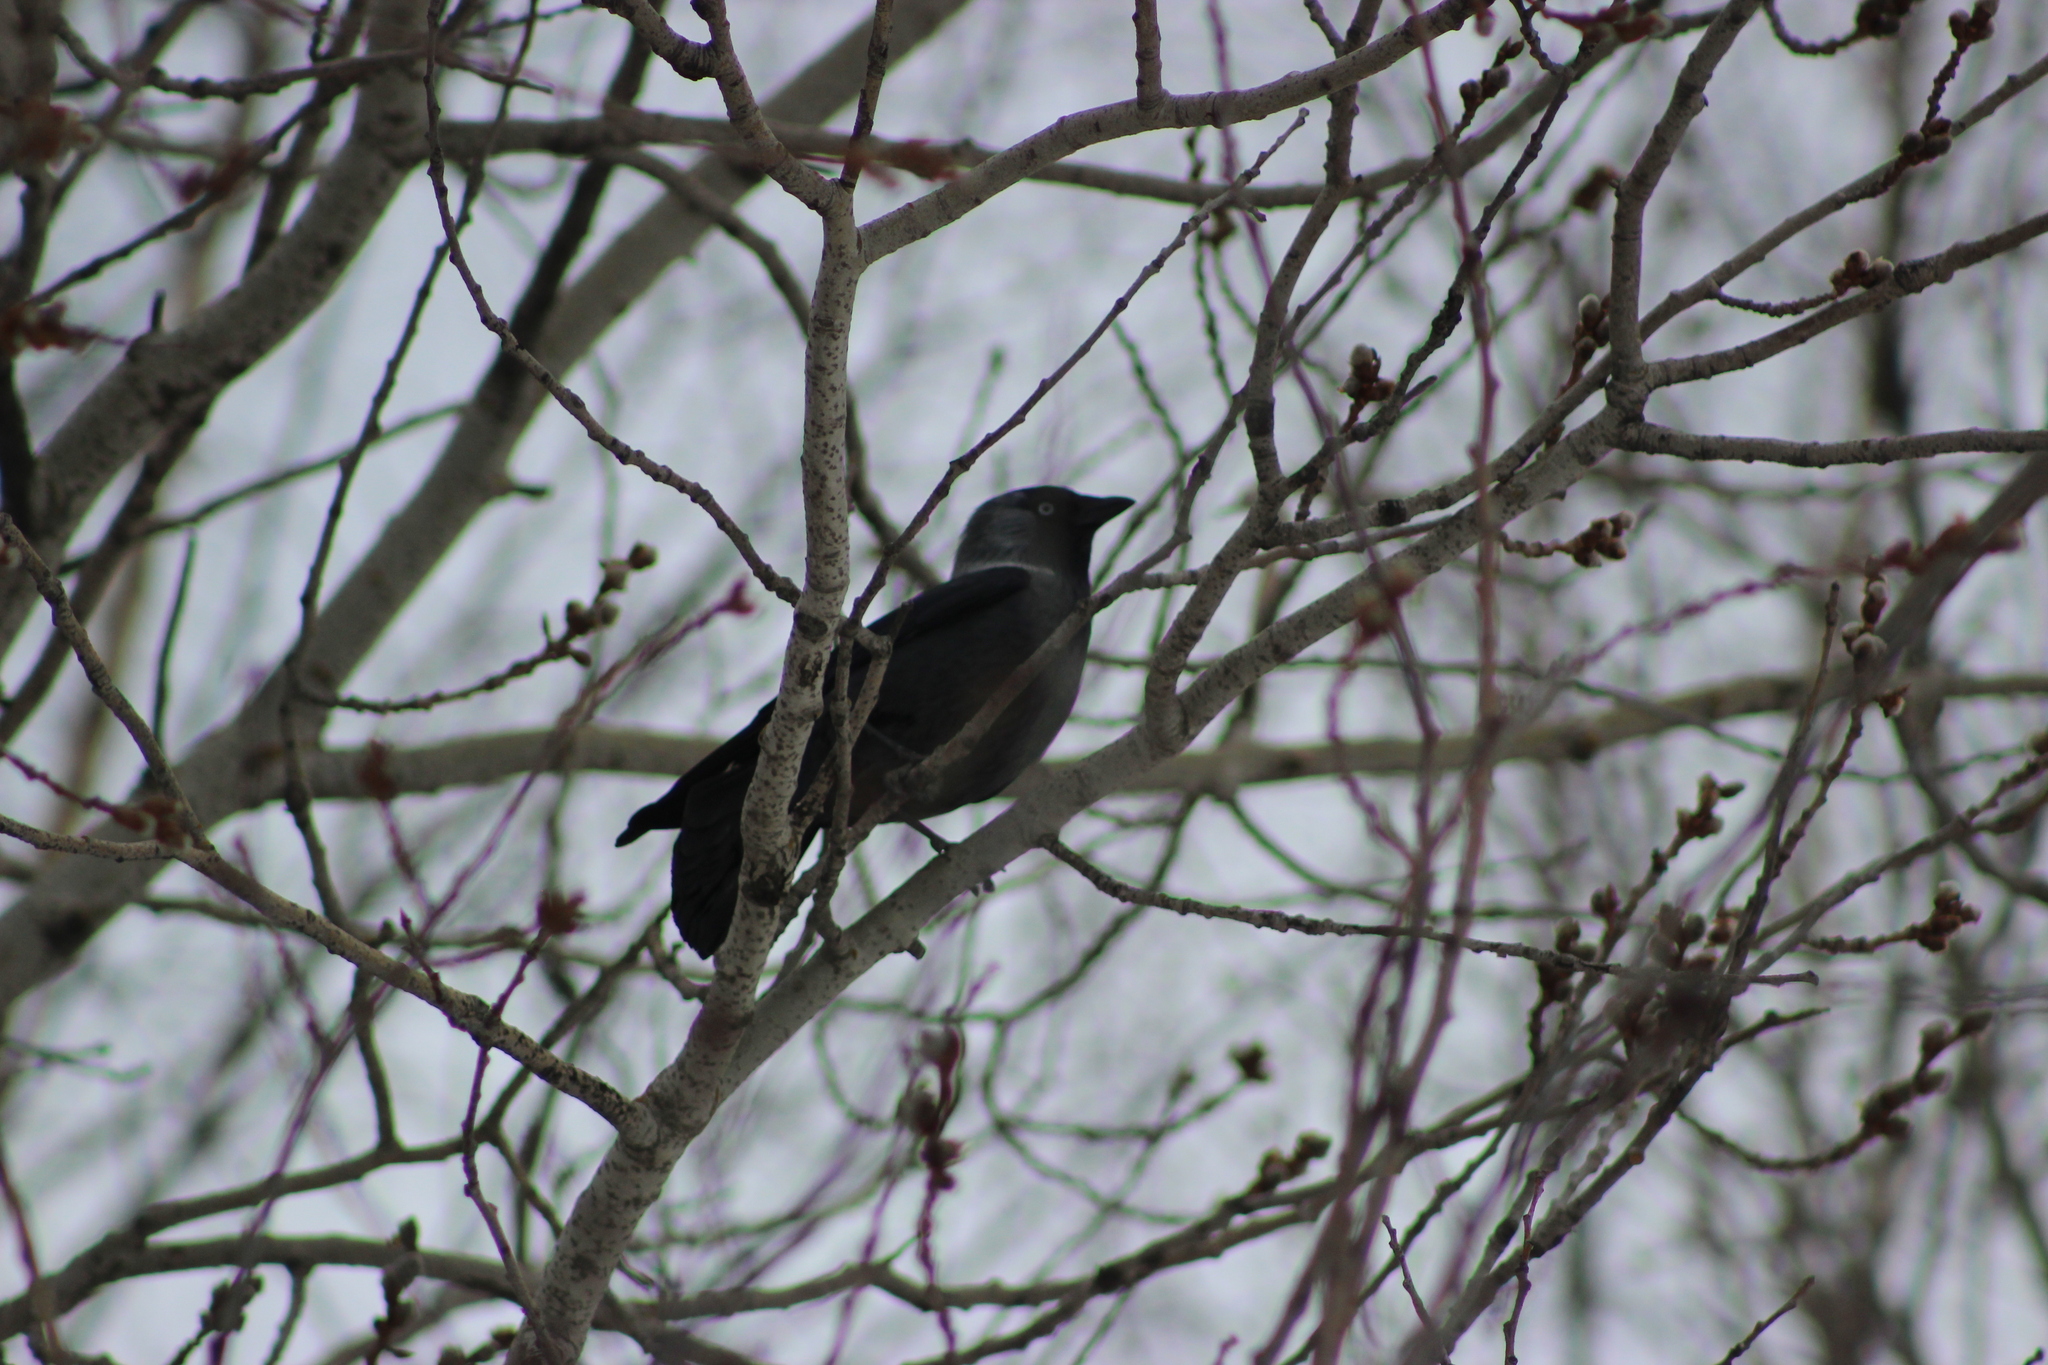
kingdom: Animalia
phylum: Chordata
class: Aves
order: Passeriformes
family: Corvidae
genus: Coloeus
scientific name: Coloeus monedula
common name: Western jackdaw
